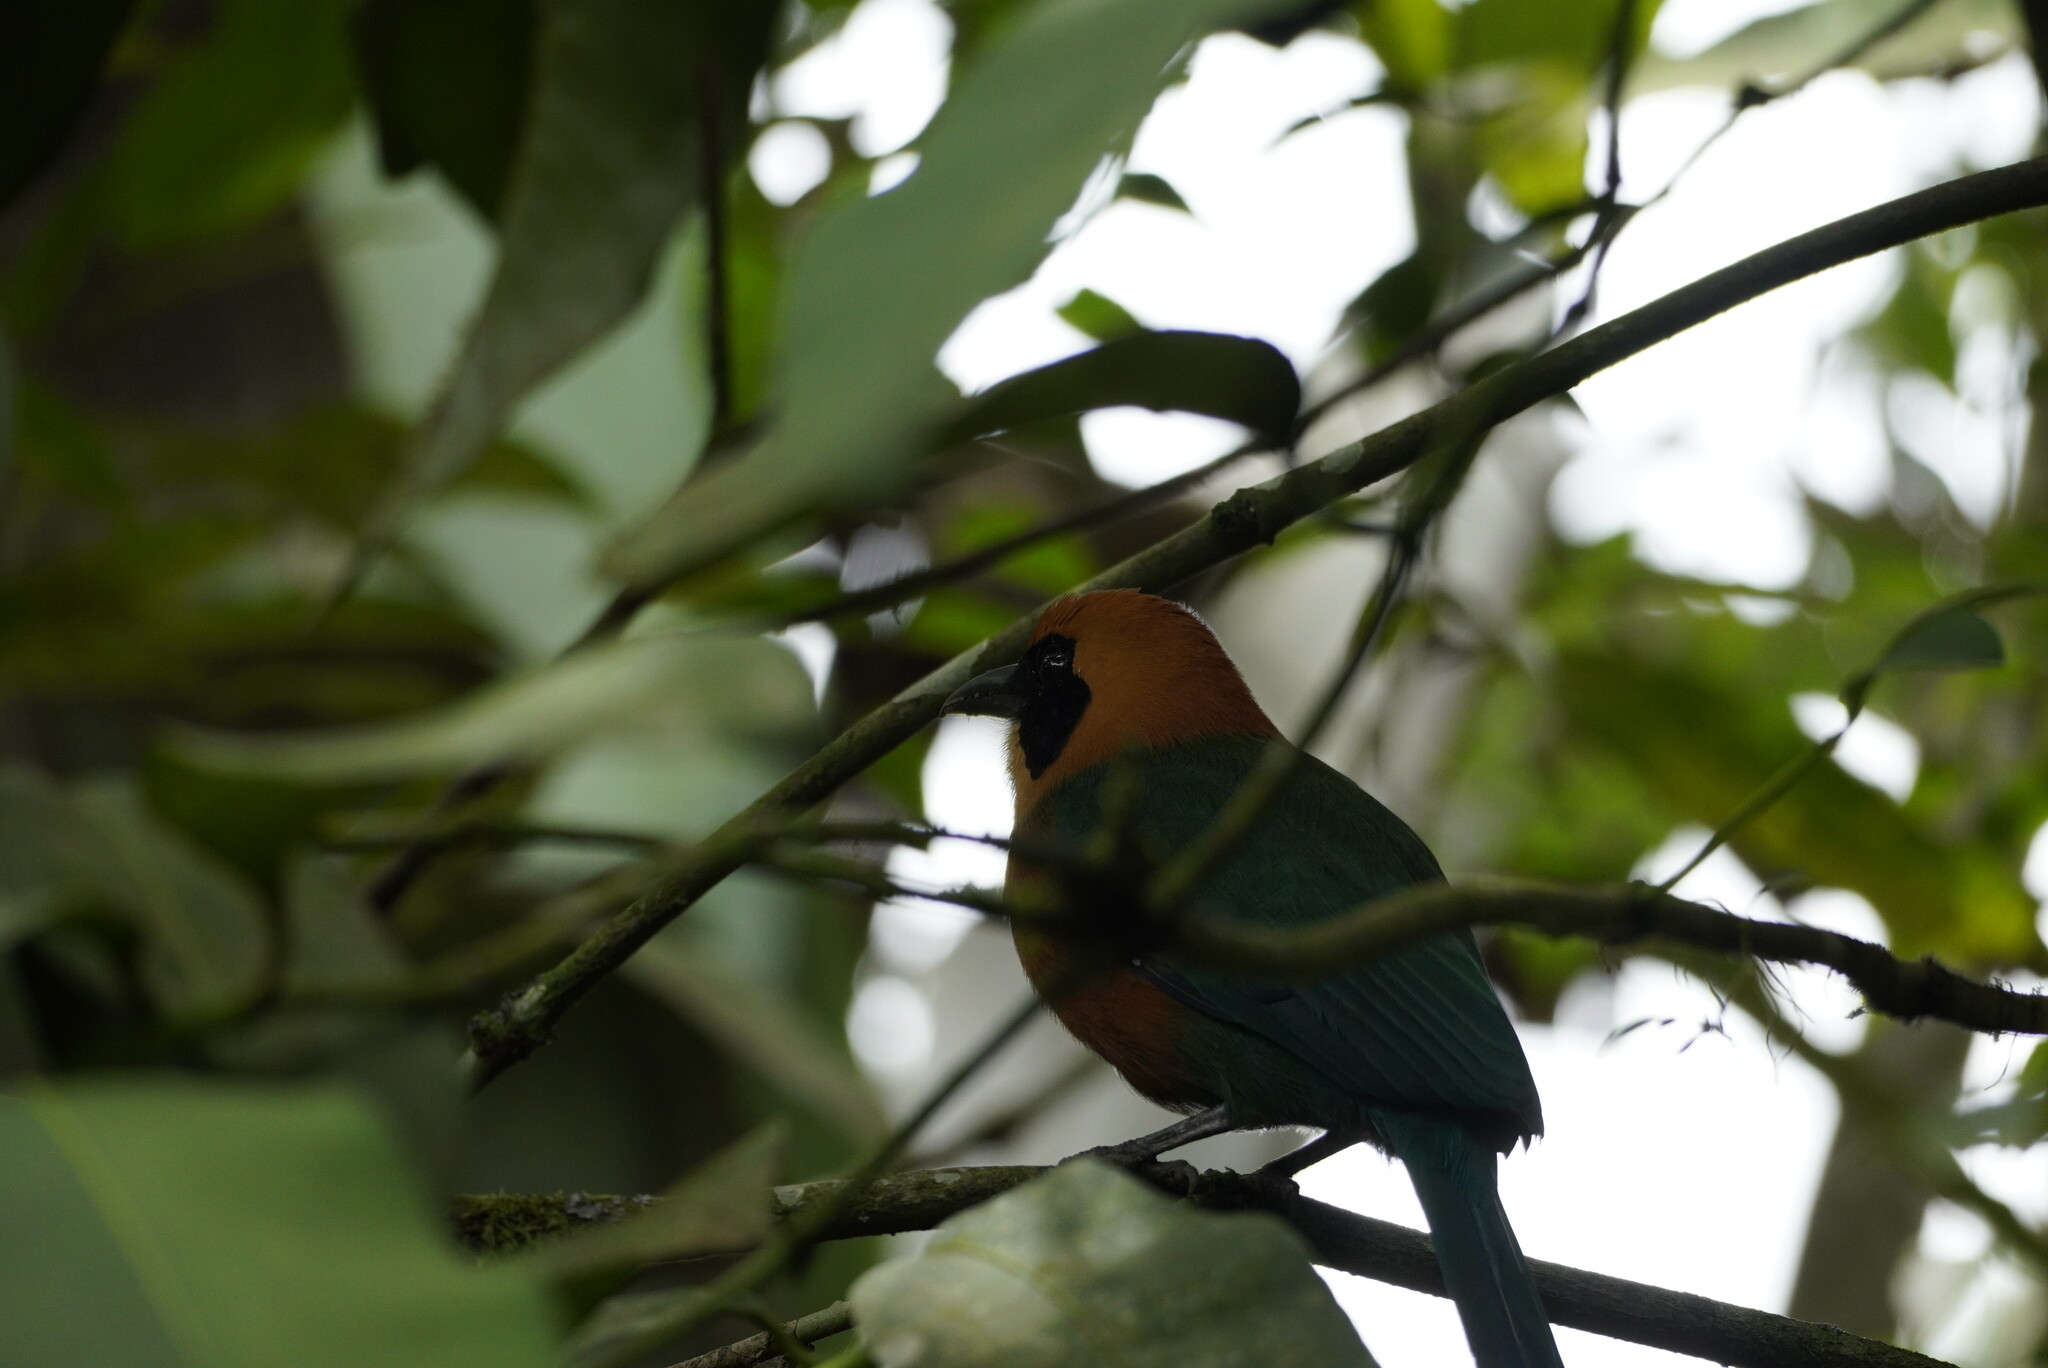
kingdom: Animalia
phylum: Chordata
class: Aves
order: Coraciiformes
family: Momotidae
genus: Baryphthengus
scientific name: Baryphthengus martii
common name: Rufous motmot
